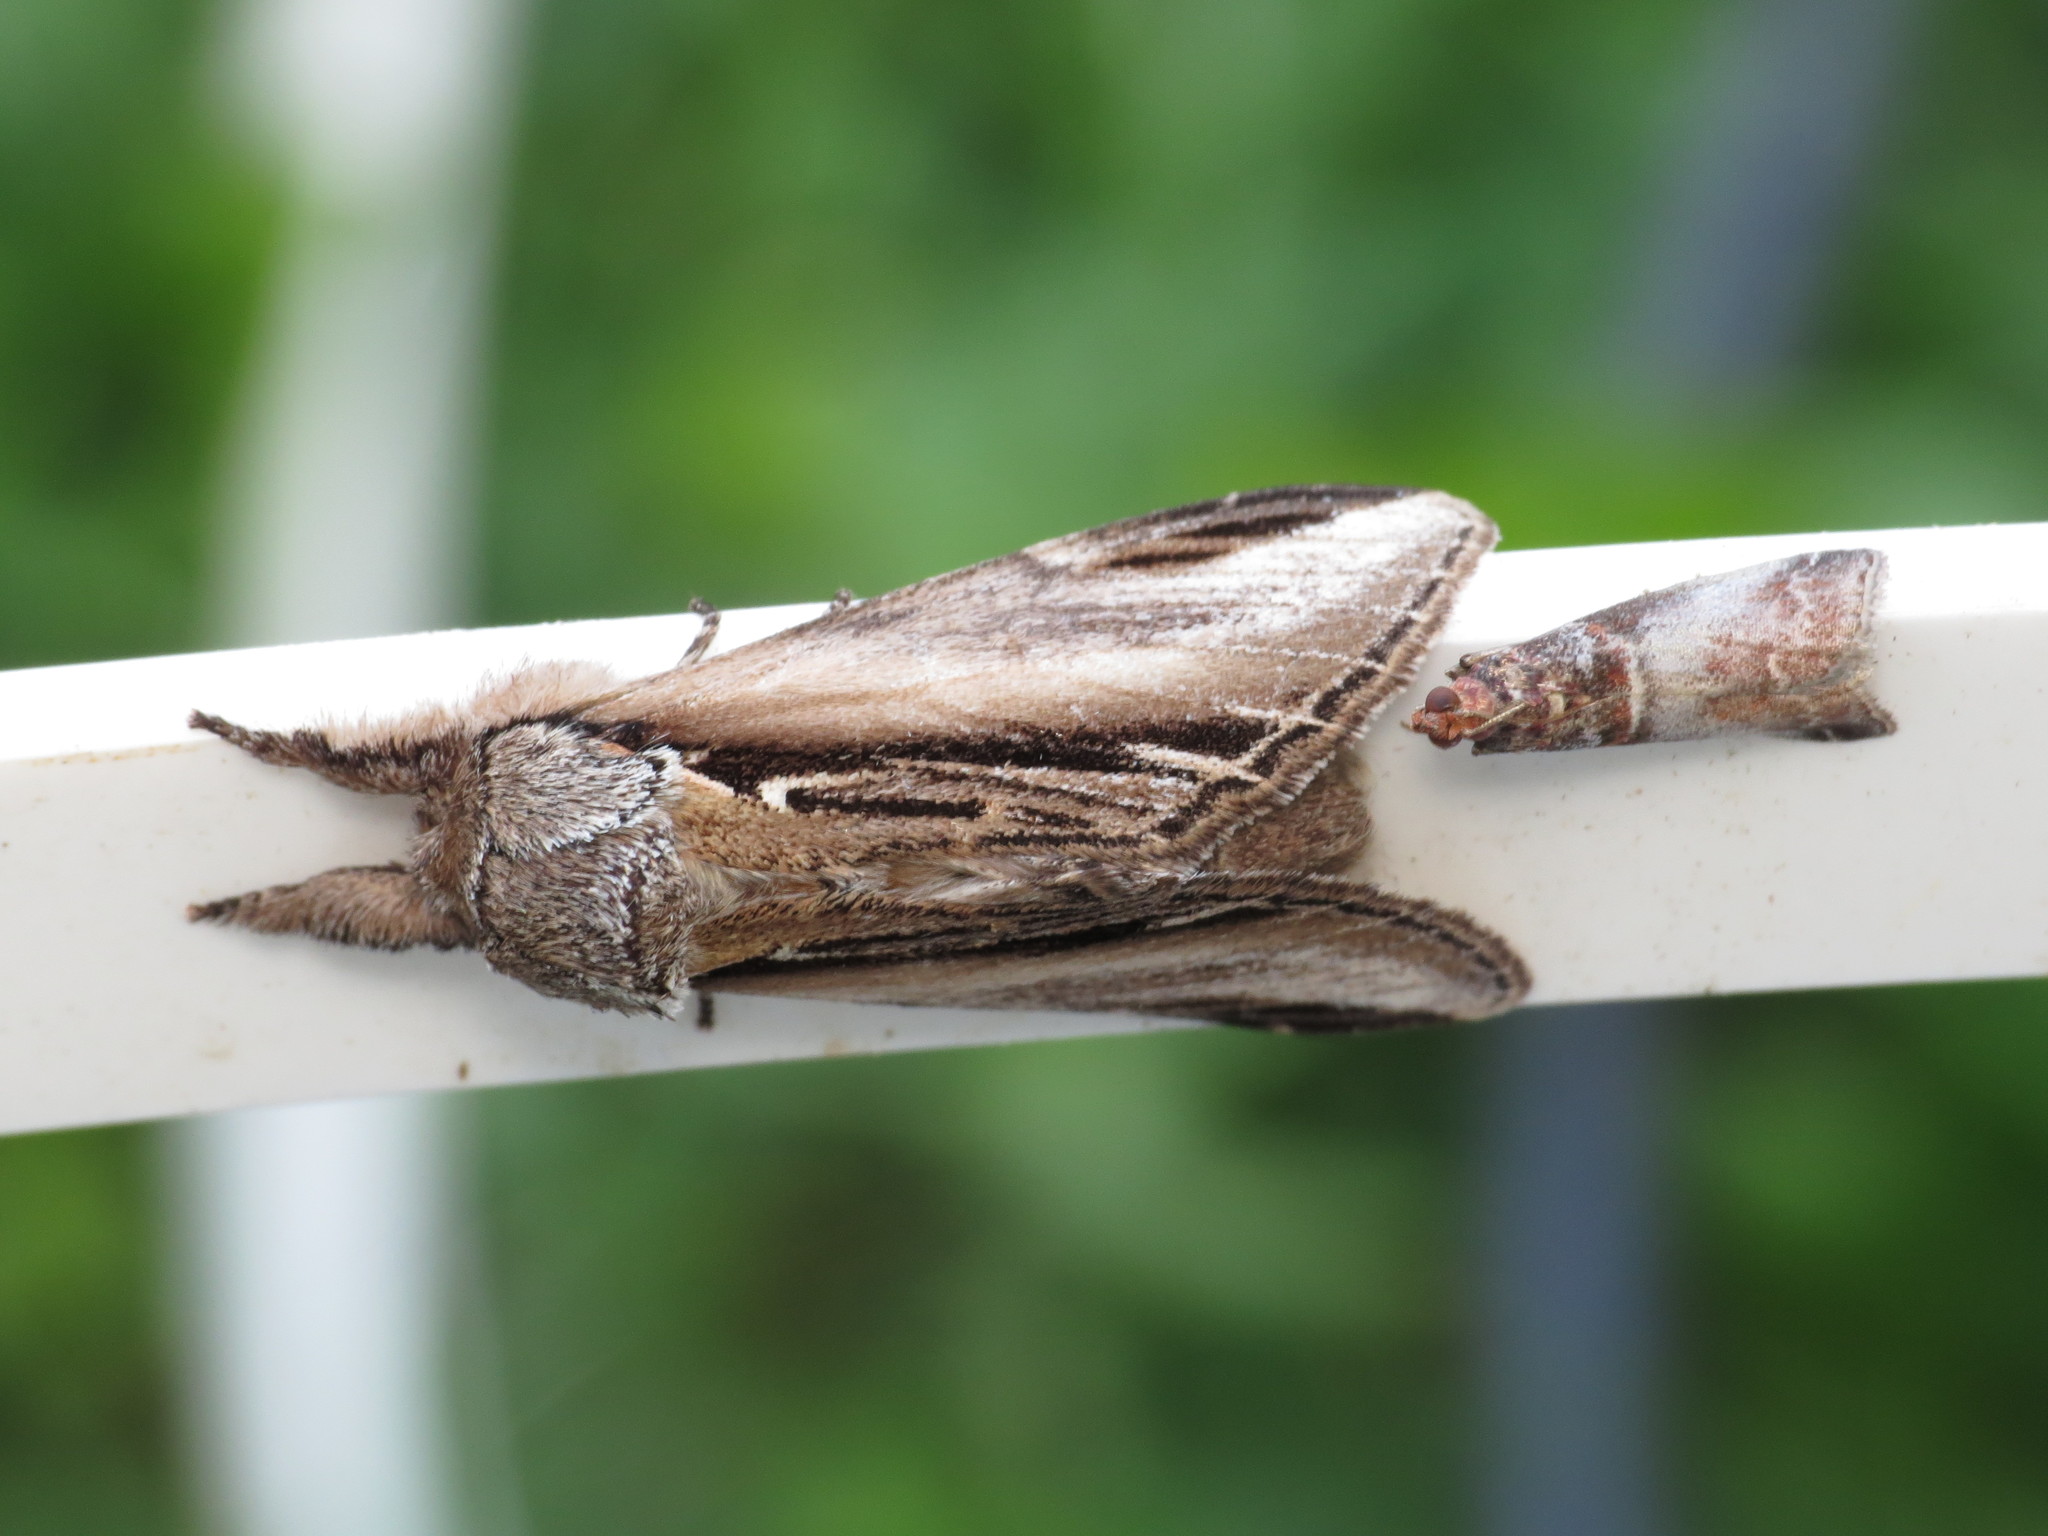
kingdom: Animalia
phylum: Arthropoda
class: Insecta
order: Lepidoptera
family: Notodontidae
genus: Pheosia
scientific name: Pheosia tremula
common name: Swallow prominent
